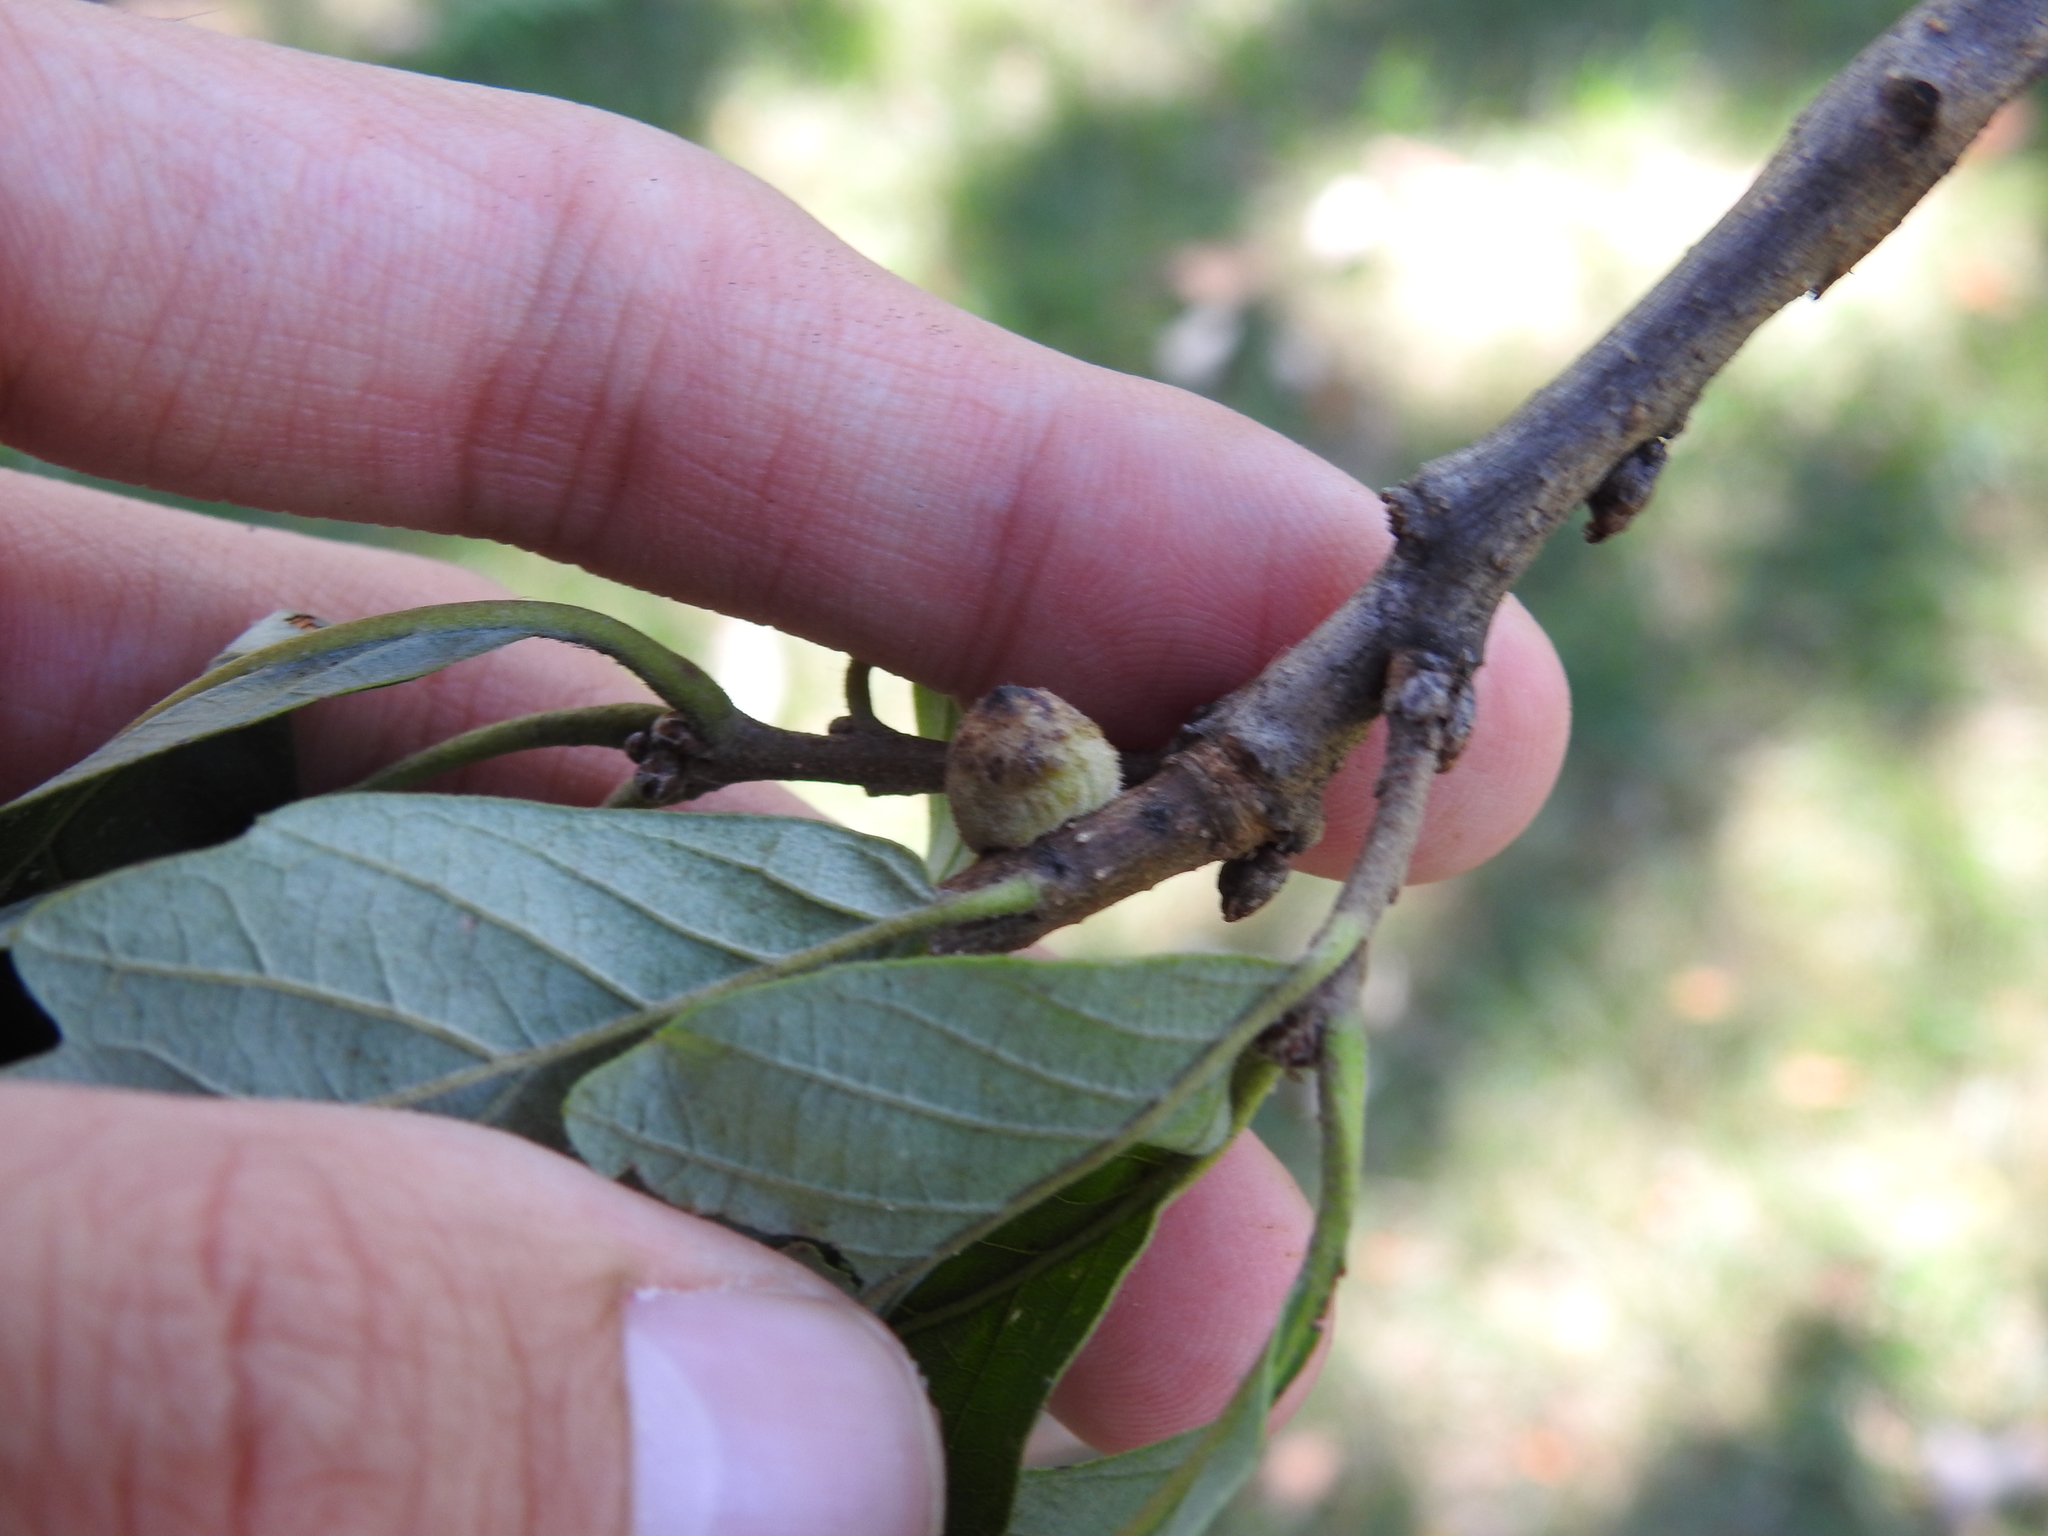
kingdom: Animalia
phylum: Arthropoda
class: Insecta
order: Hymenoptera
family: Cynipidae
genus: Disholcaspis
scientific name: Disholcaspis
